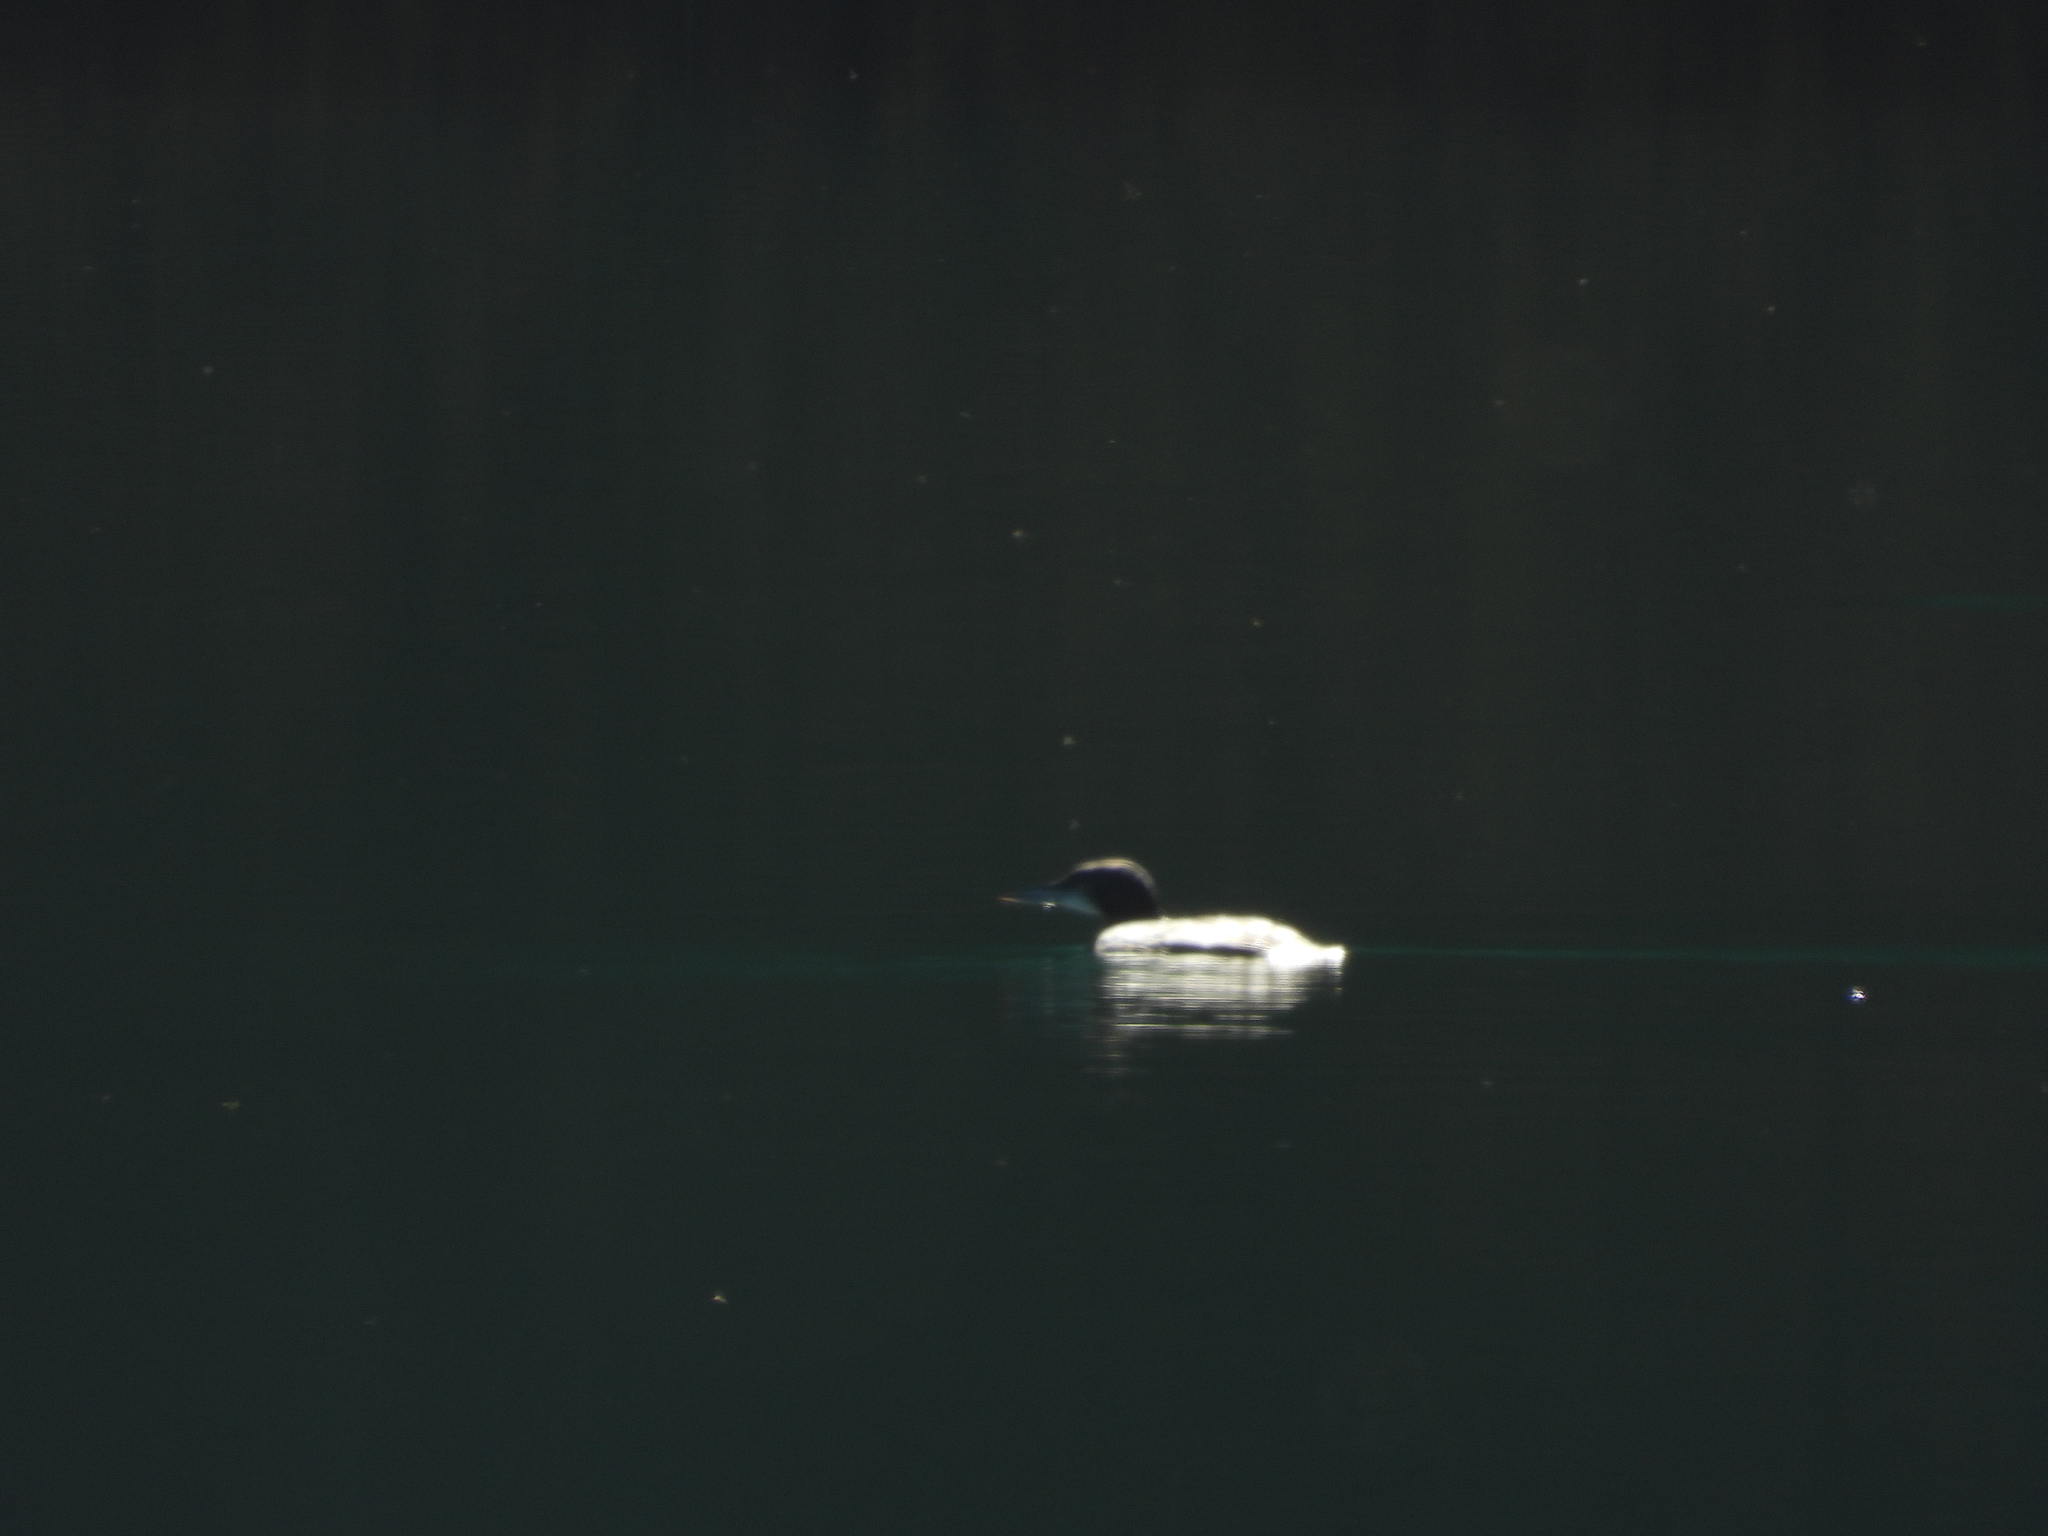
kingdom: Animalia
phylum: Chordata
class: Aves
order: Gaviiformes
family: Gaviidae
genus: Gavia
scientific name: Gavia immer
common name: Common loon
